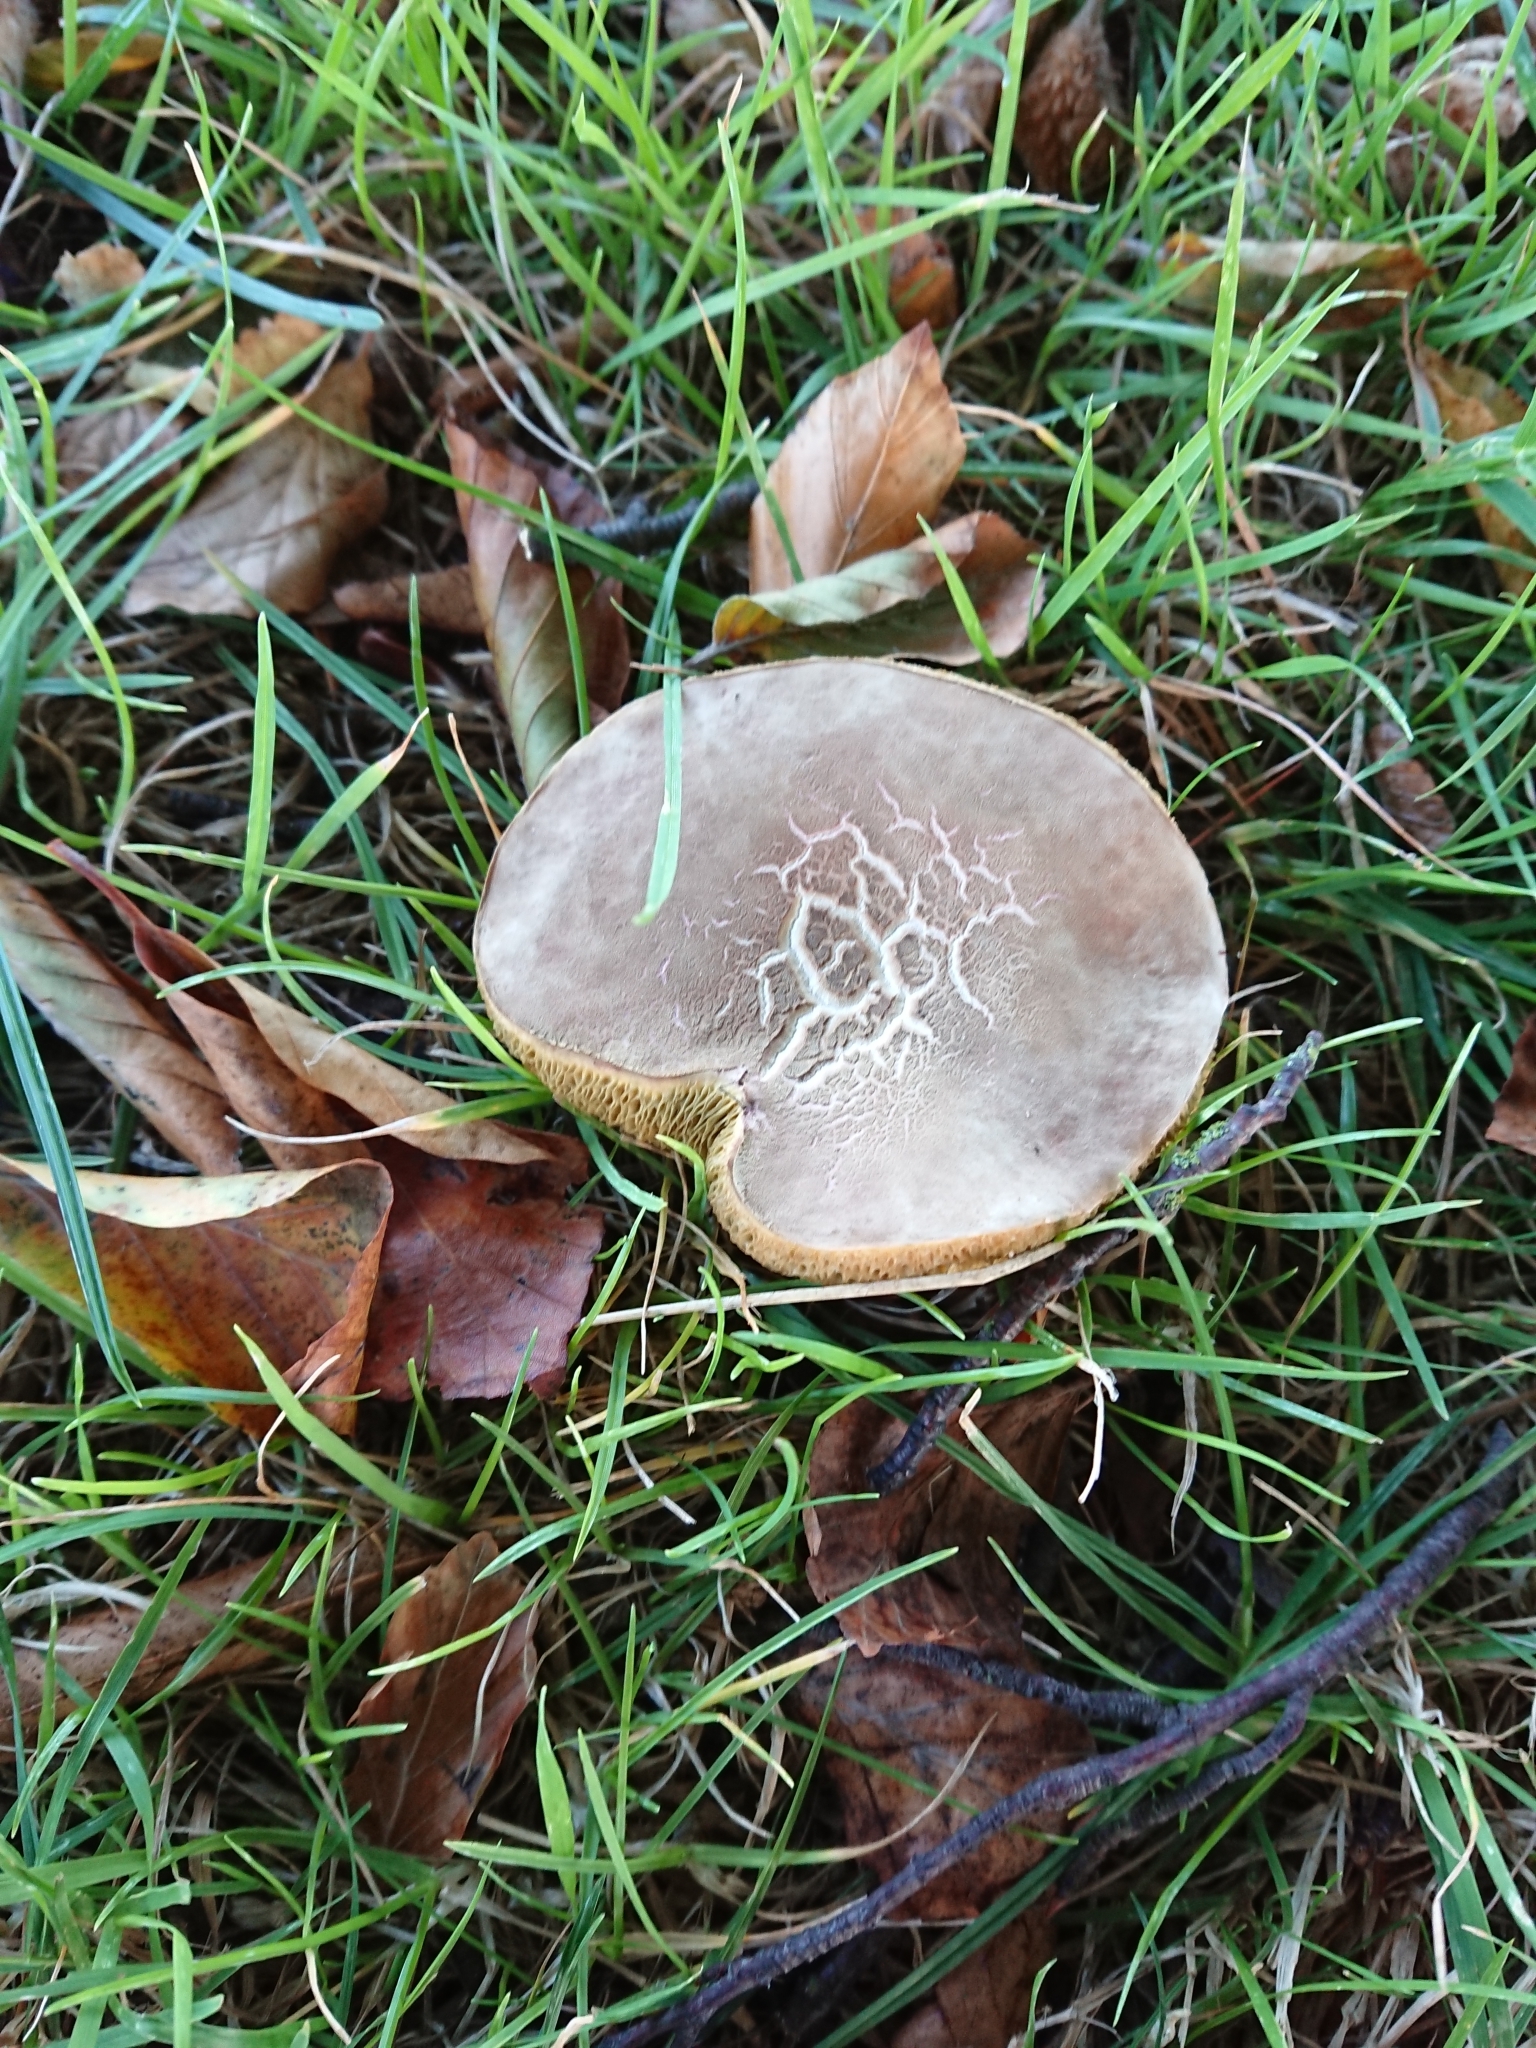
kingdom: Fungi
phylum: Basidiomycota
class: Agaricomycetes
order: Boletales
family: Boletaceae
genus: Xerocomellus
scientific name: Xerocomellus cisalpinus
